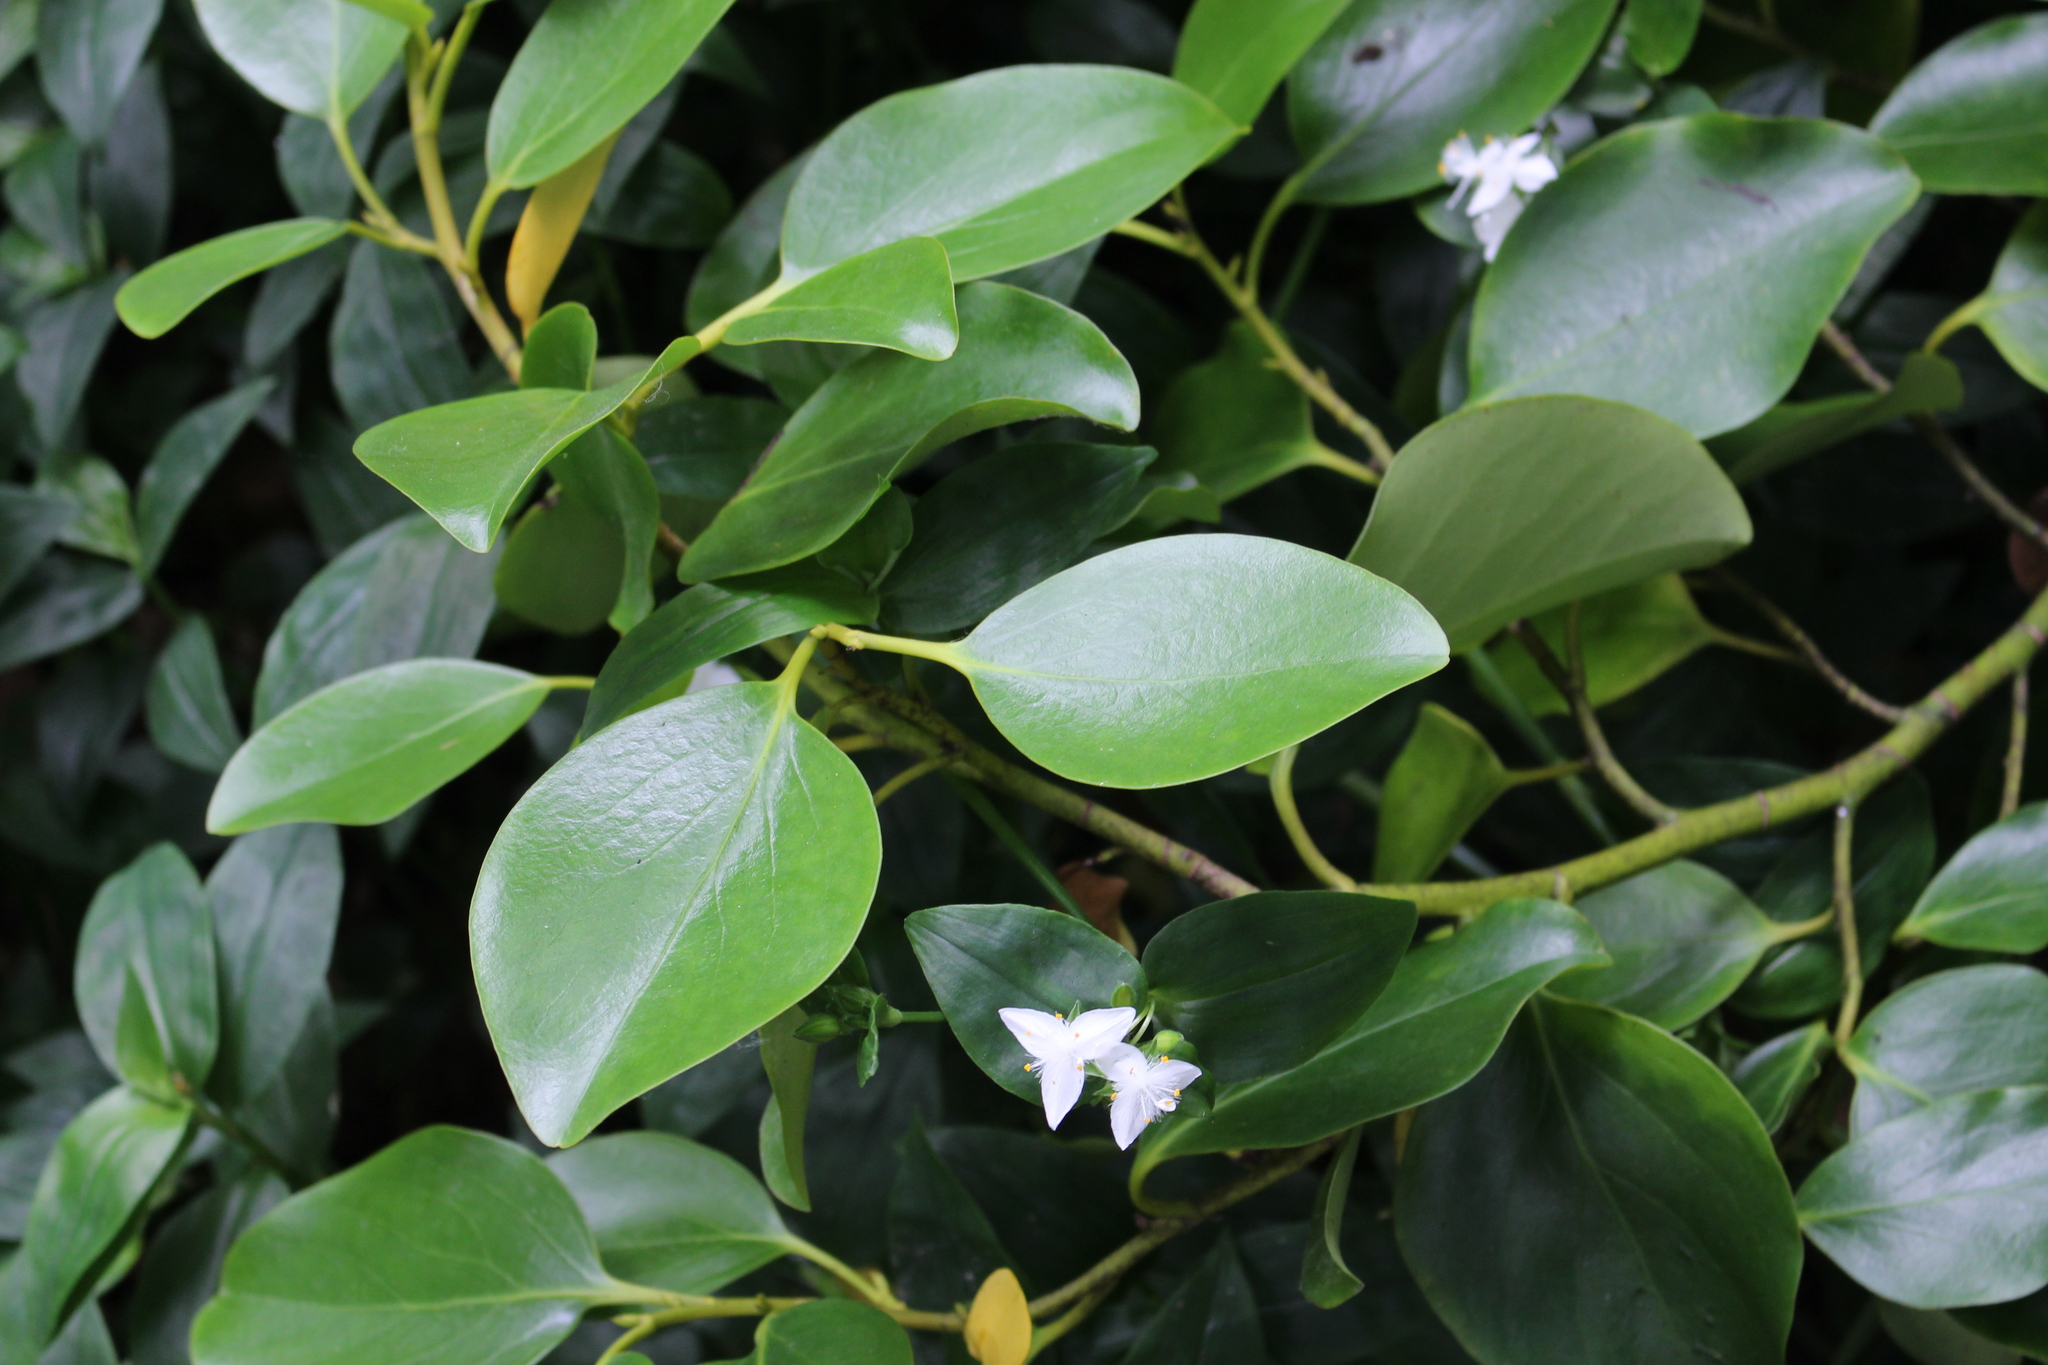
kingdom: Plantae
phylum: Tracheophyta
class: Magnoliopsida
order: Apiales
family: Griseliniaceae
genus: Griselinia
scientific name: Griselinia littoralis
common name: New zealand broadleaf
